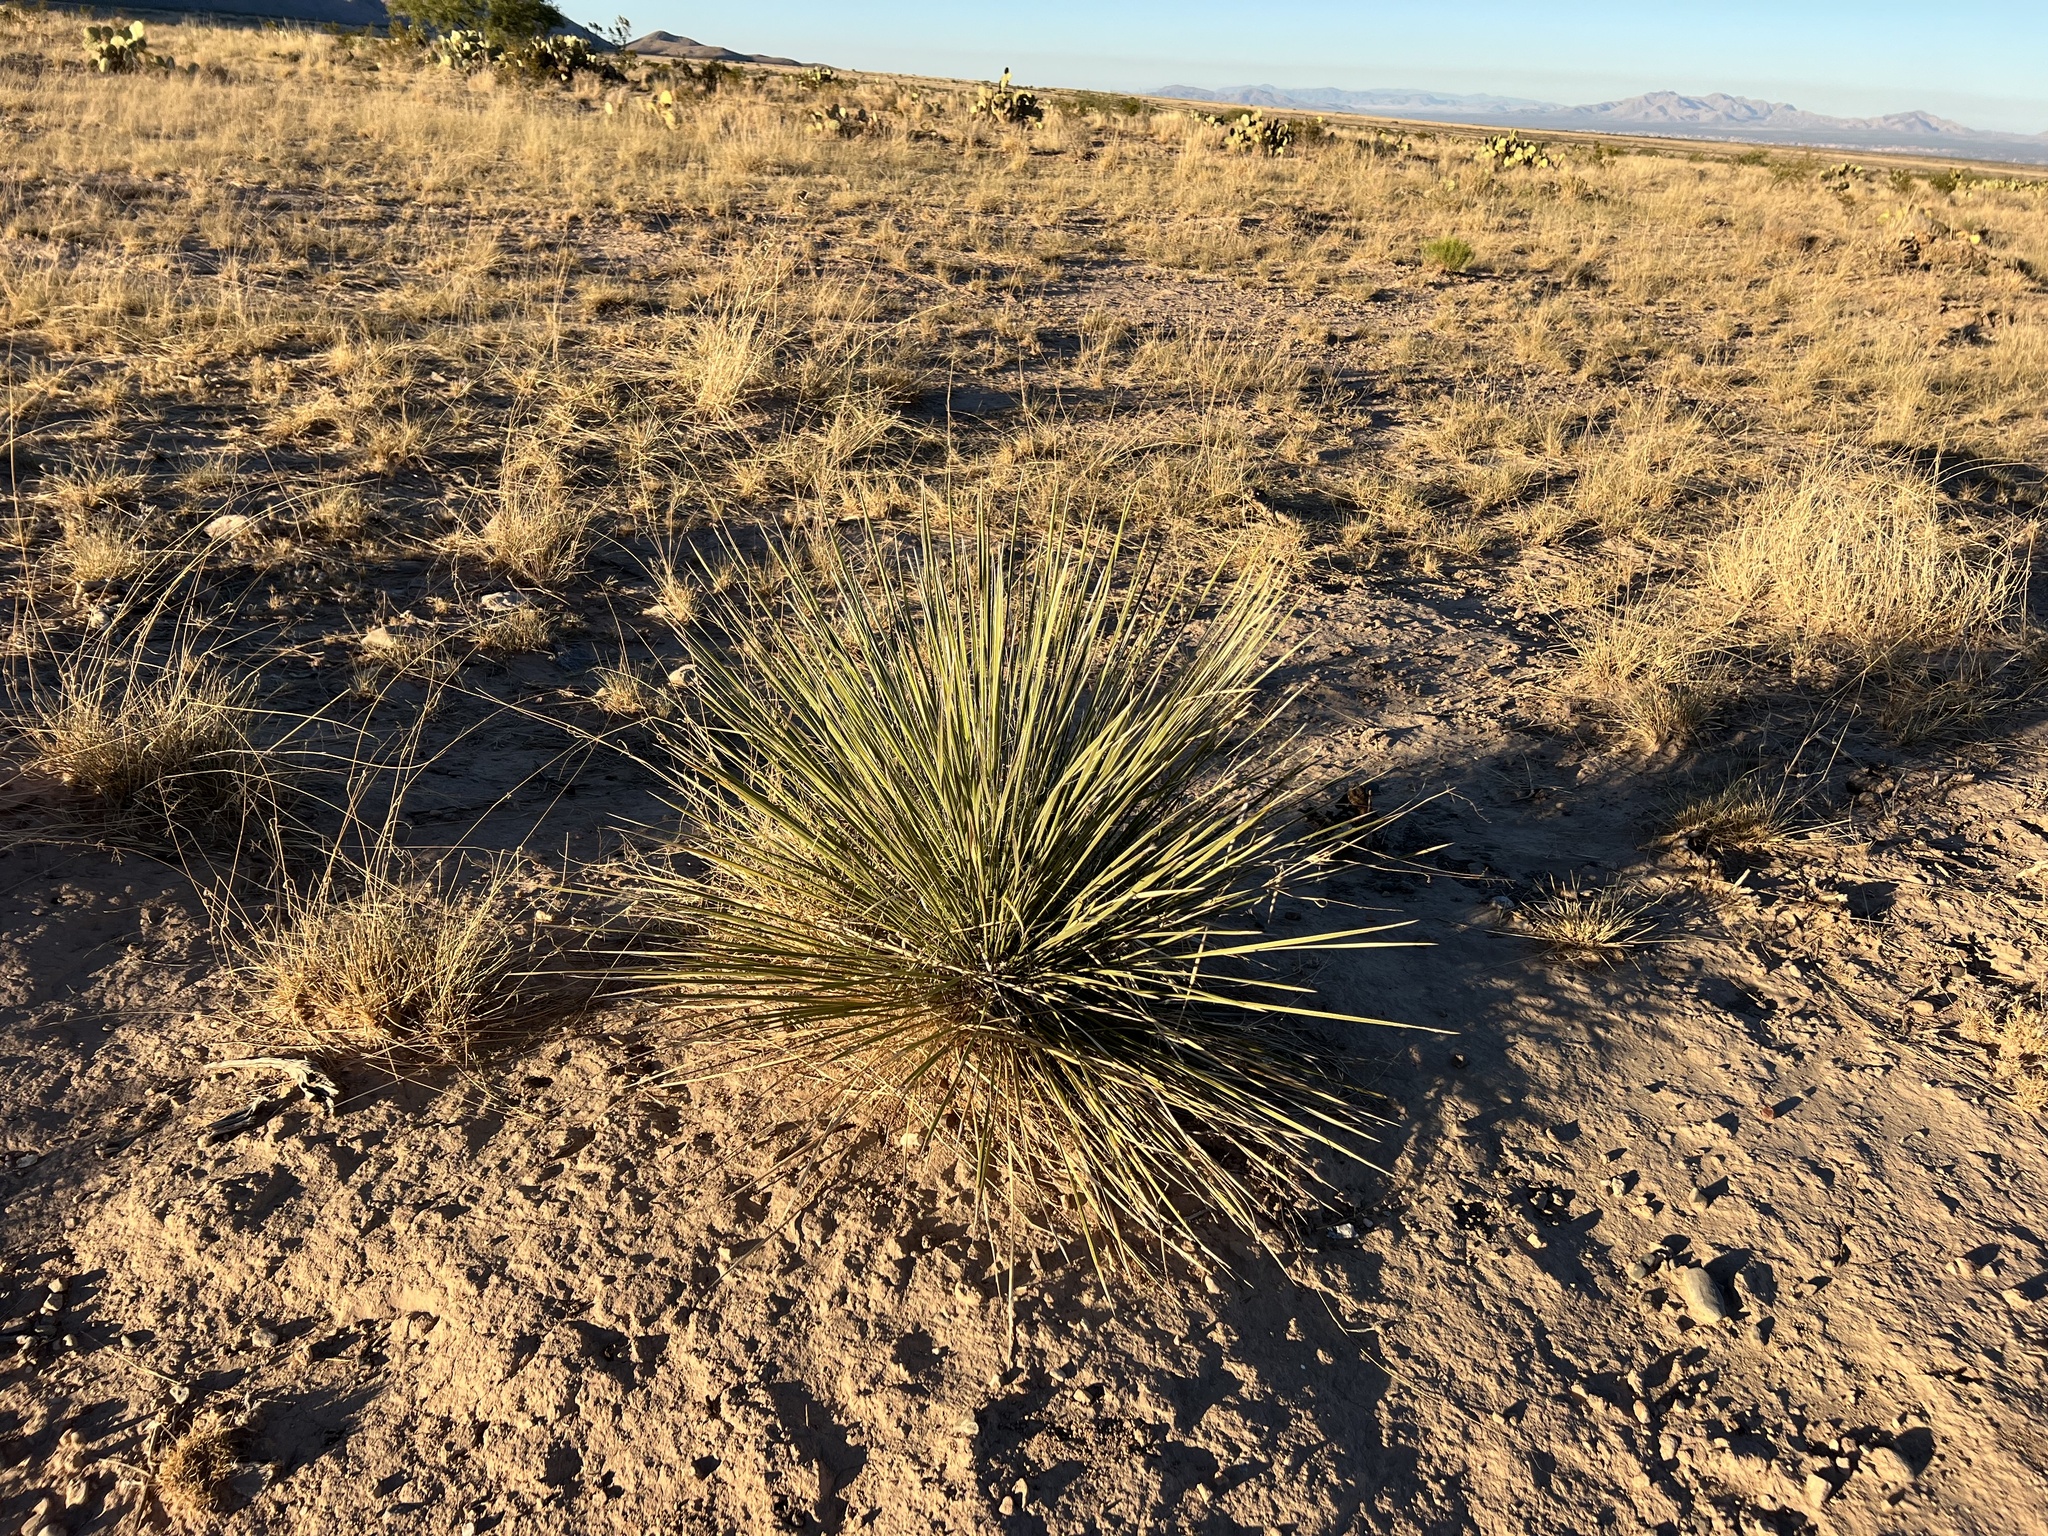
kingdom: Plantae
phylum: Tracheophyta
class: Liliopsida
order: Asparagales
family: Asparagaceae
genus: Yucca
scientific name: Yucca elata
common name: Palmella
